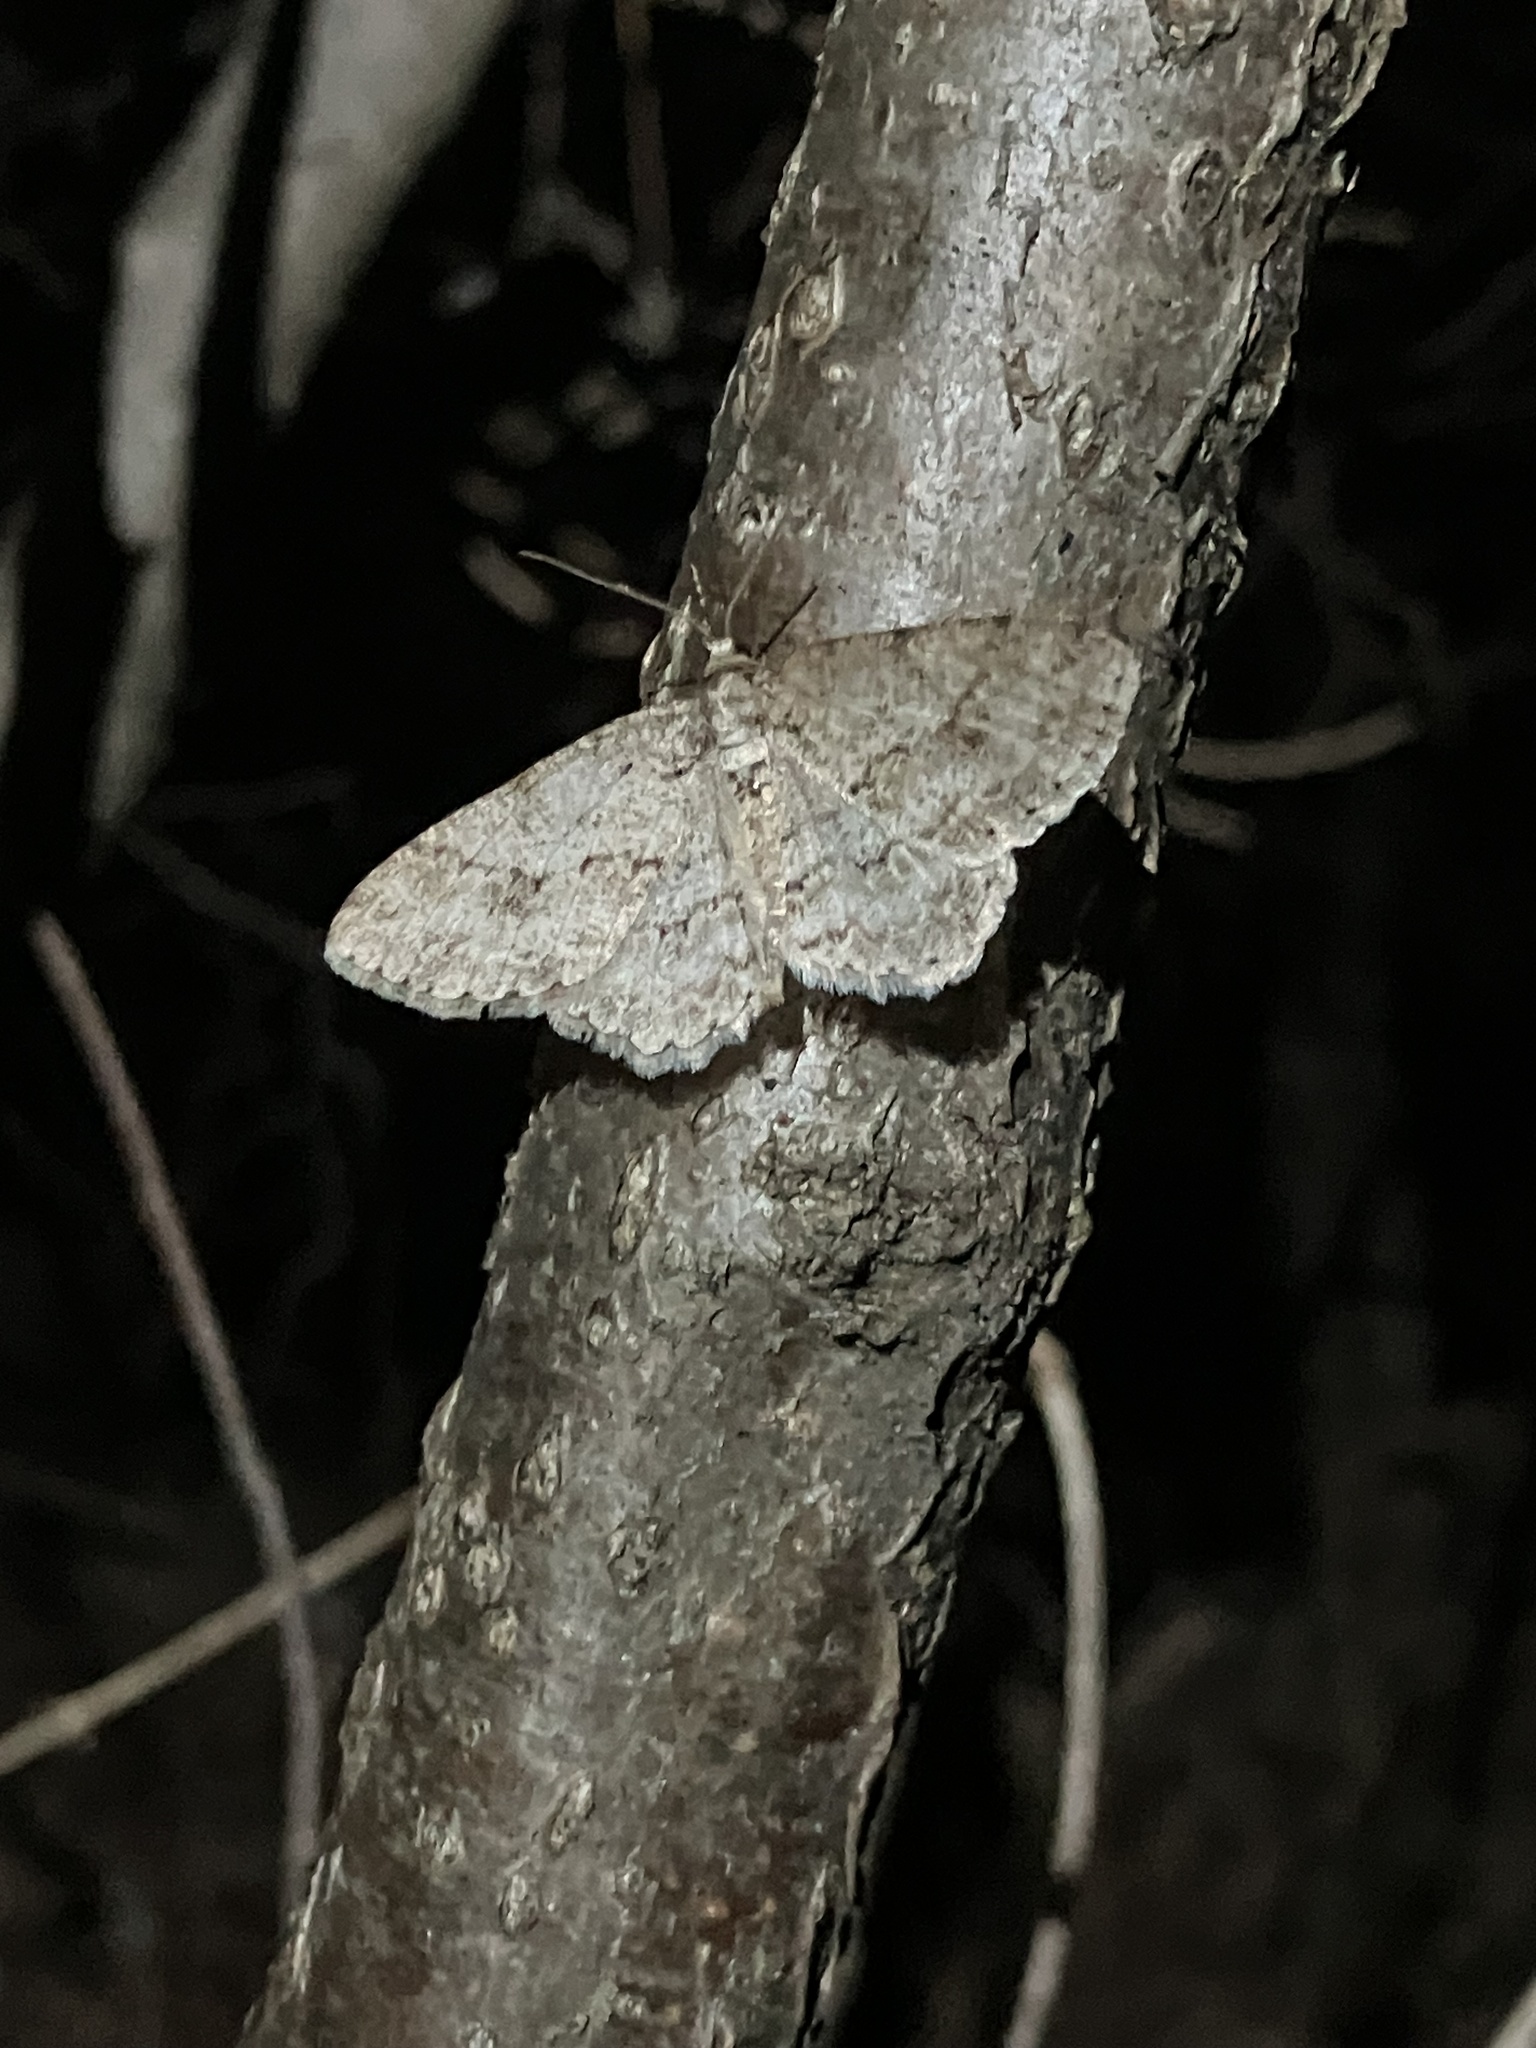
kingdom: Animalia
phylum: Arthropoda
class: Insecta
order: Lepidoptera
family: Geometridae
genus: Ectropis
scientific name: Ectropis crepuscularia
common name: Engrailed
